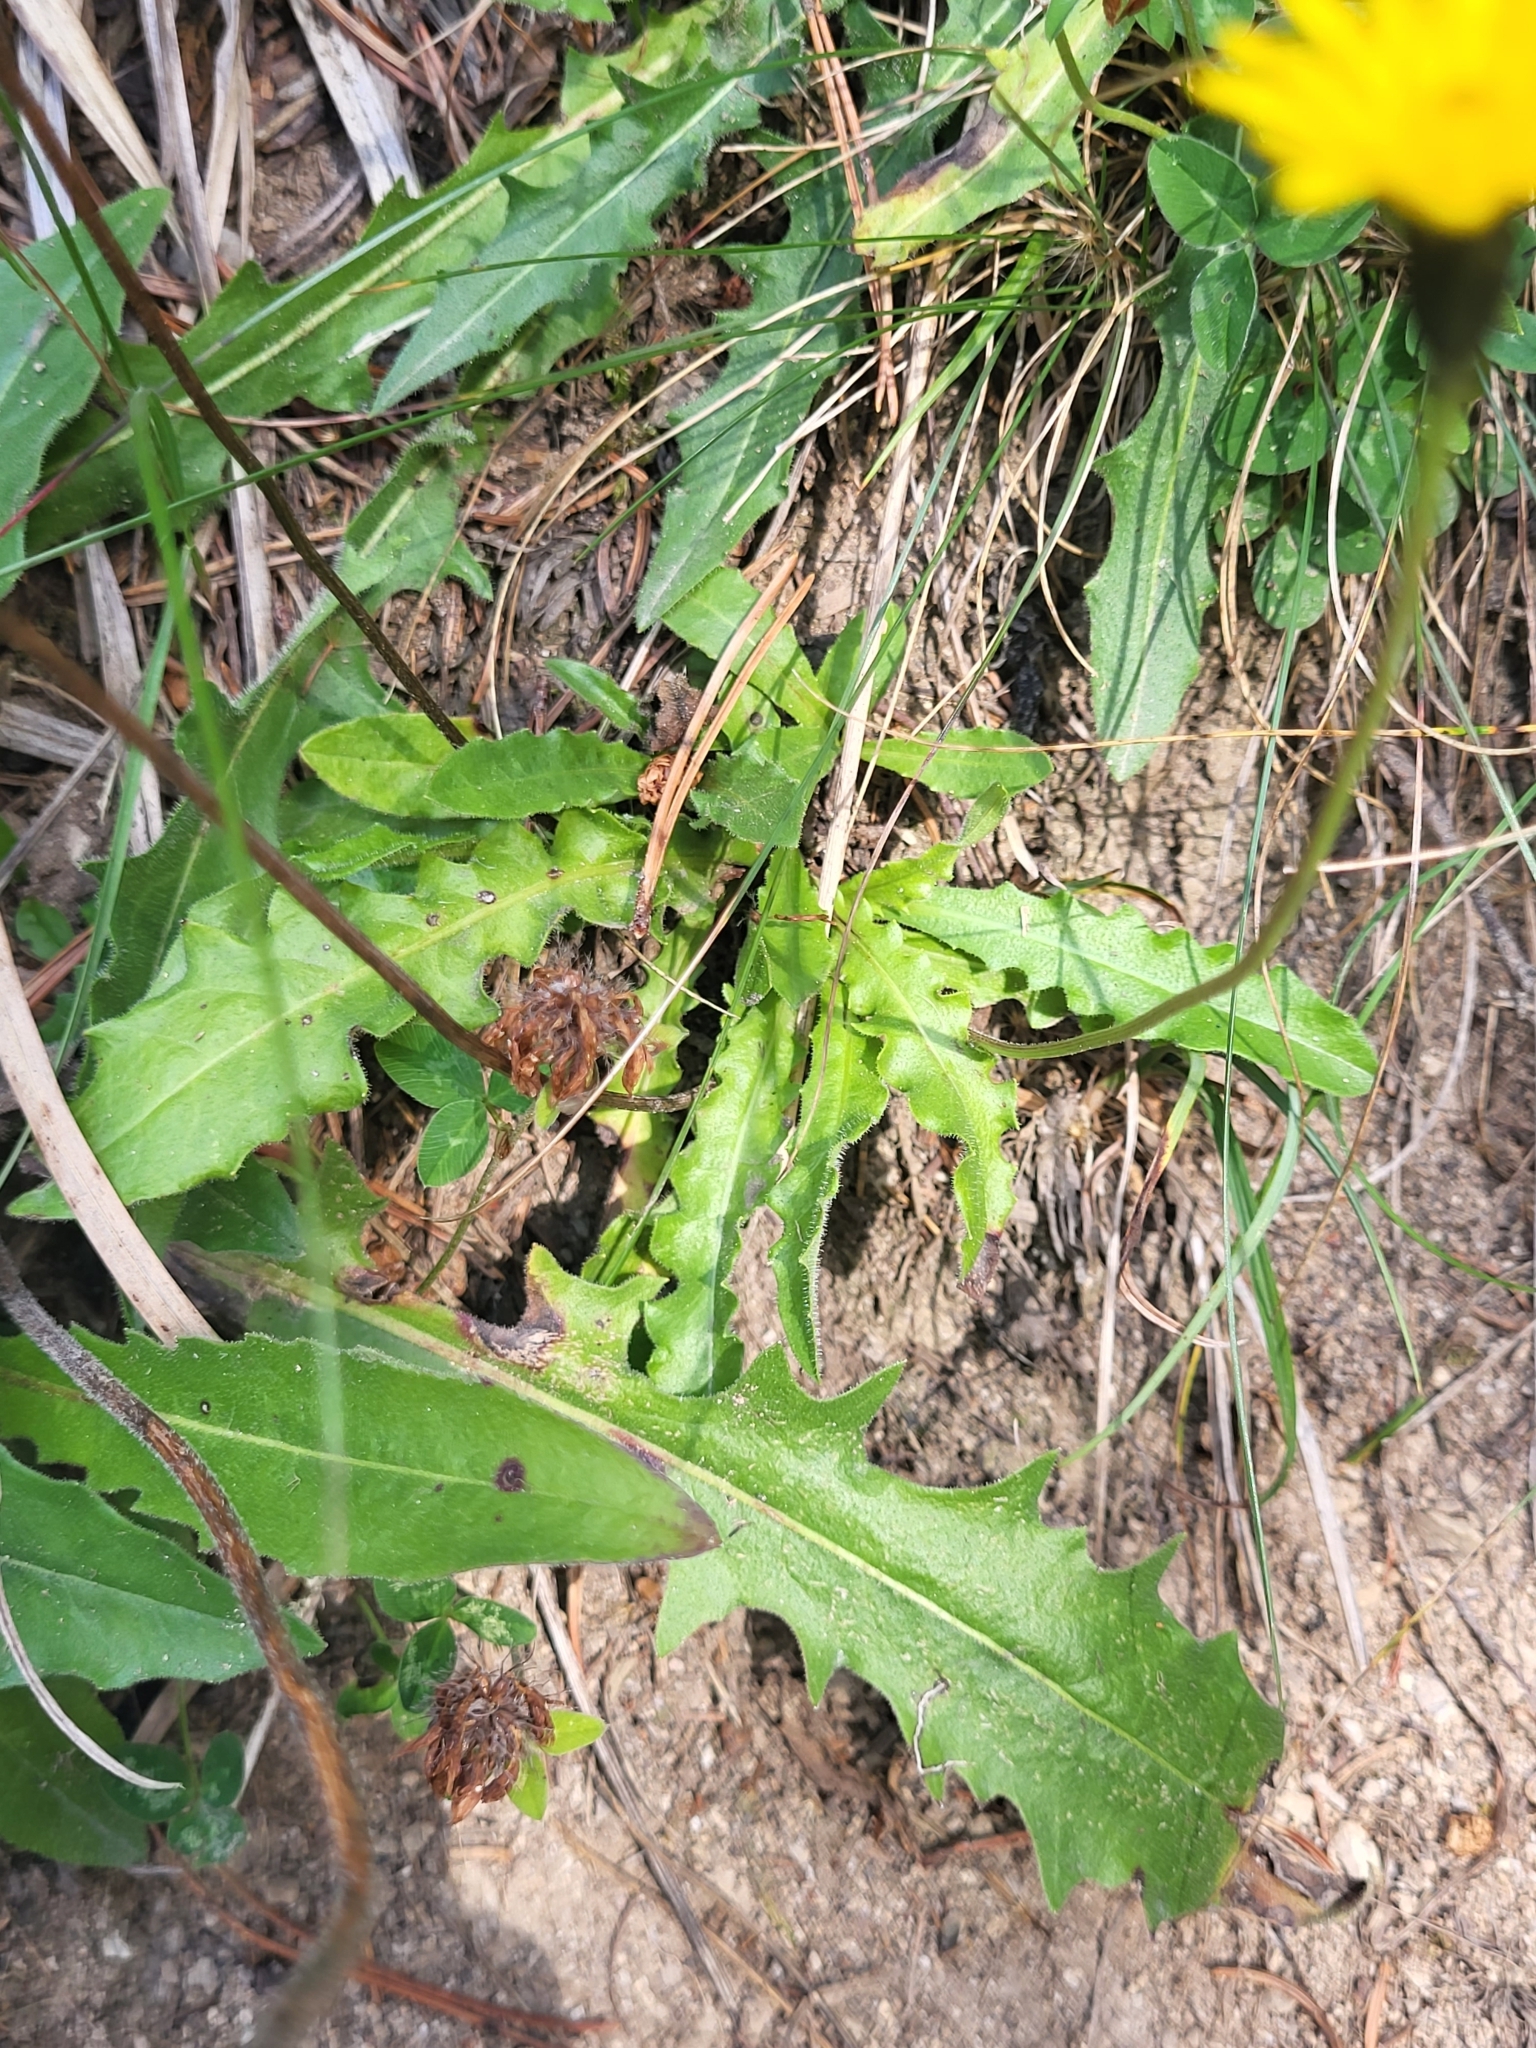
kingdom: Plantae
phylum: Tracheophyta
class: Magnoliopsida
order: Asterales
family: Asteraceae
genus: Leontodon
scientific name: Leontodon hispidus
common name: Rough hawkbit
